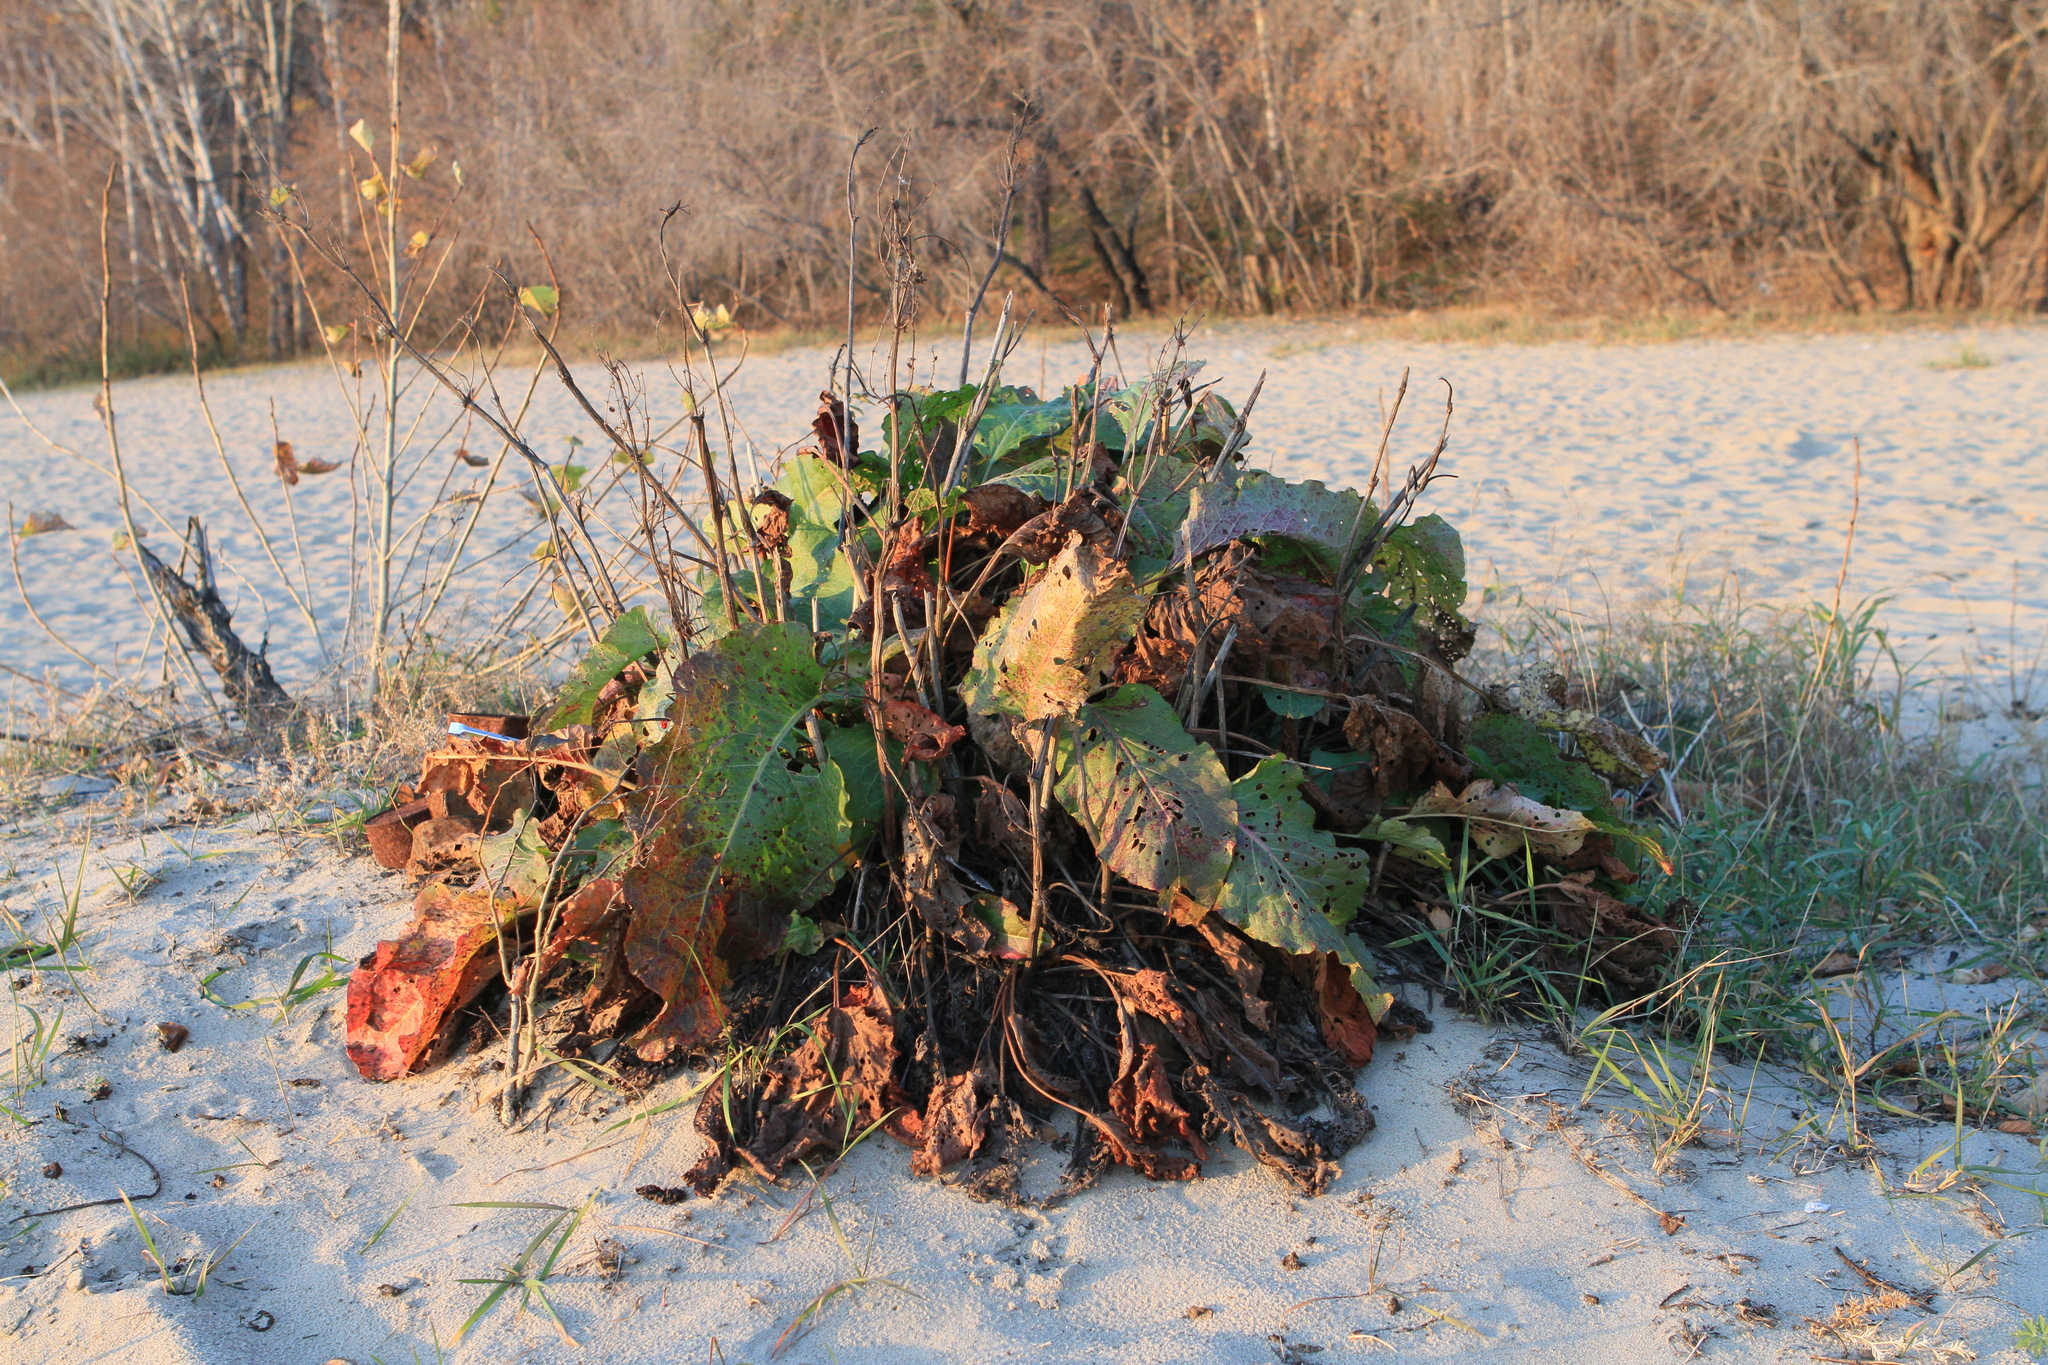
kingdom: Plantae
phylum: Tracheophyta
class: Magnoliopsida
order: Caryophyllales
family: Polygonaceae
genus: Rumex
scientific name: Rumex confertus
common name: Russian dock
